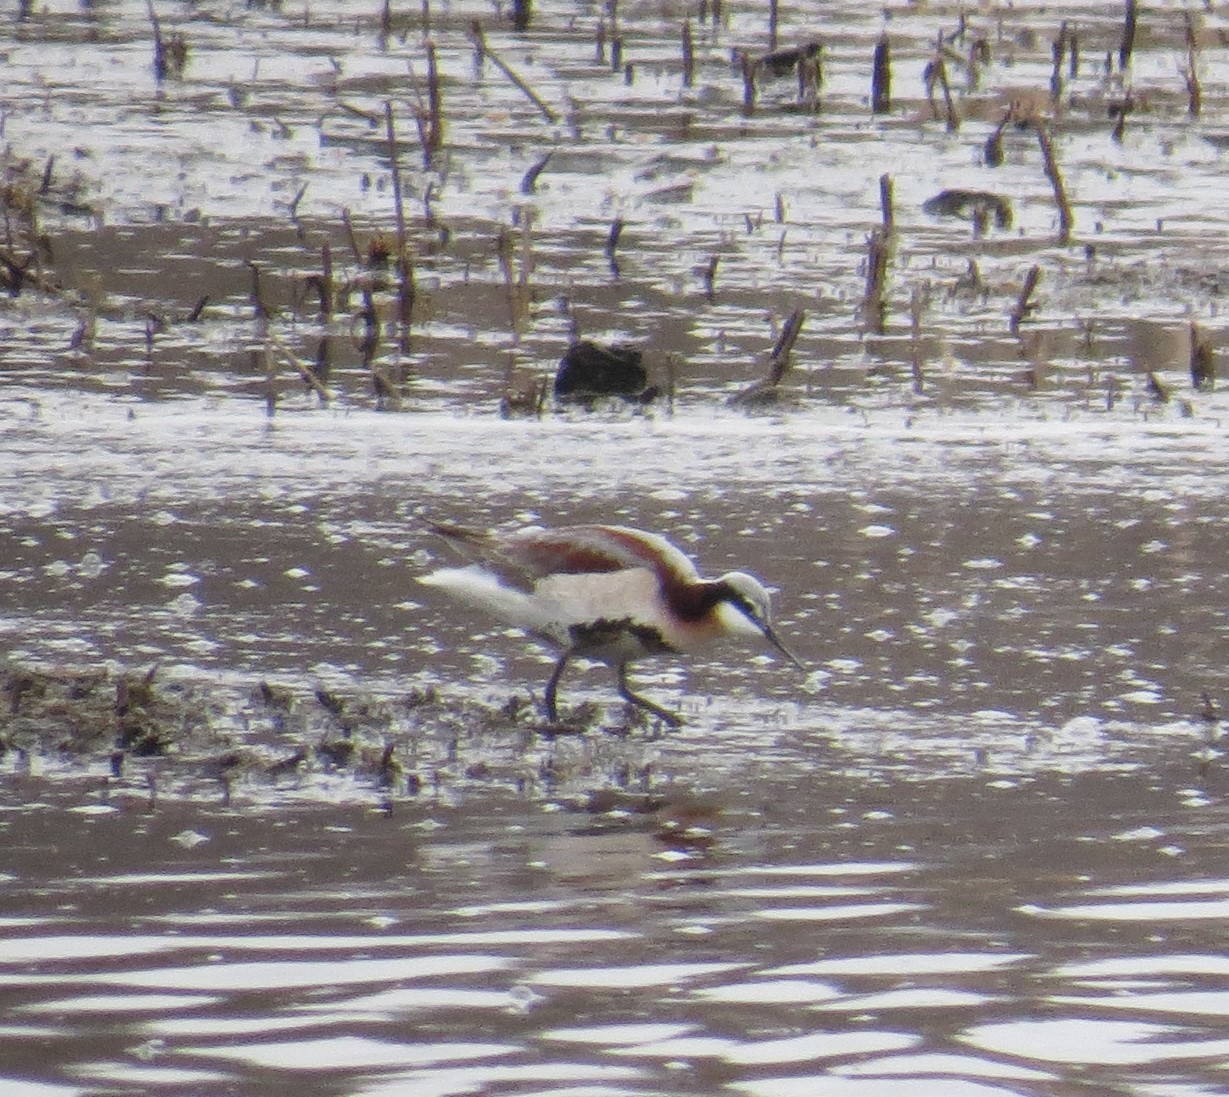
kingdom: Animalia
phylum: Chordata
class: Aves
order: Charadriiformes
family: Scolopacidae
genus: Phalaropus
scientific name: Phalaropus tricolor
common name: Wilson's phalarope
